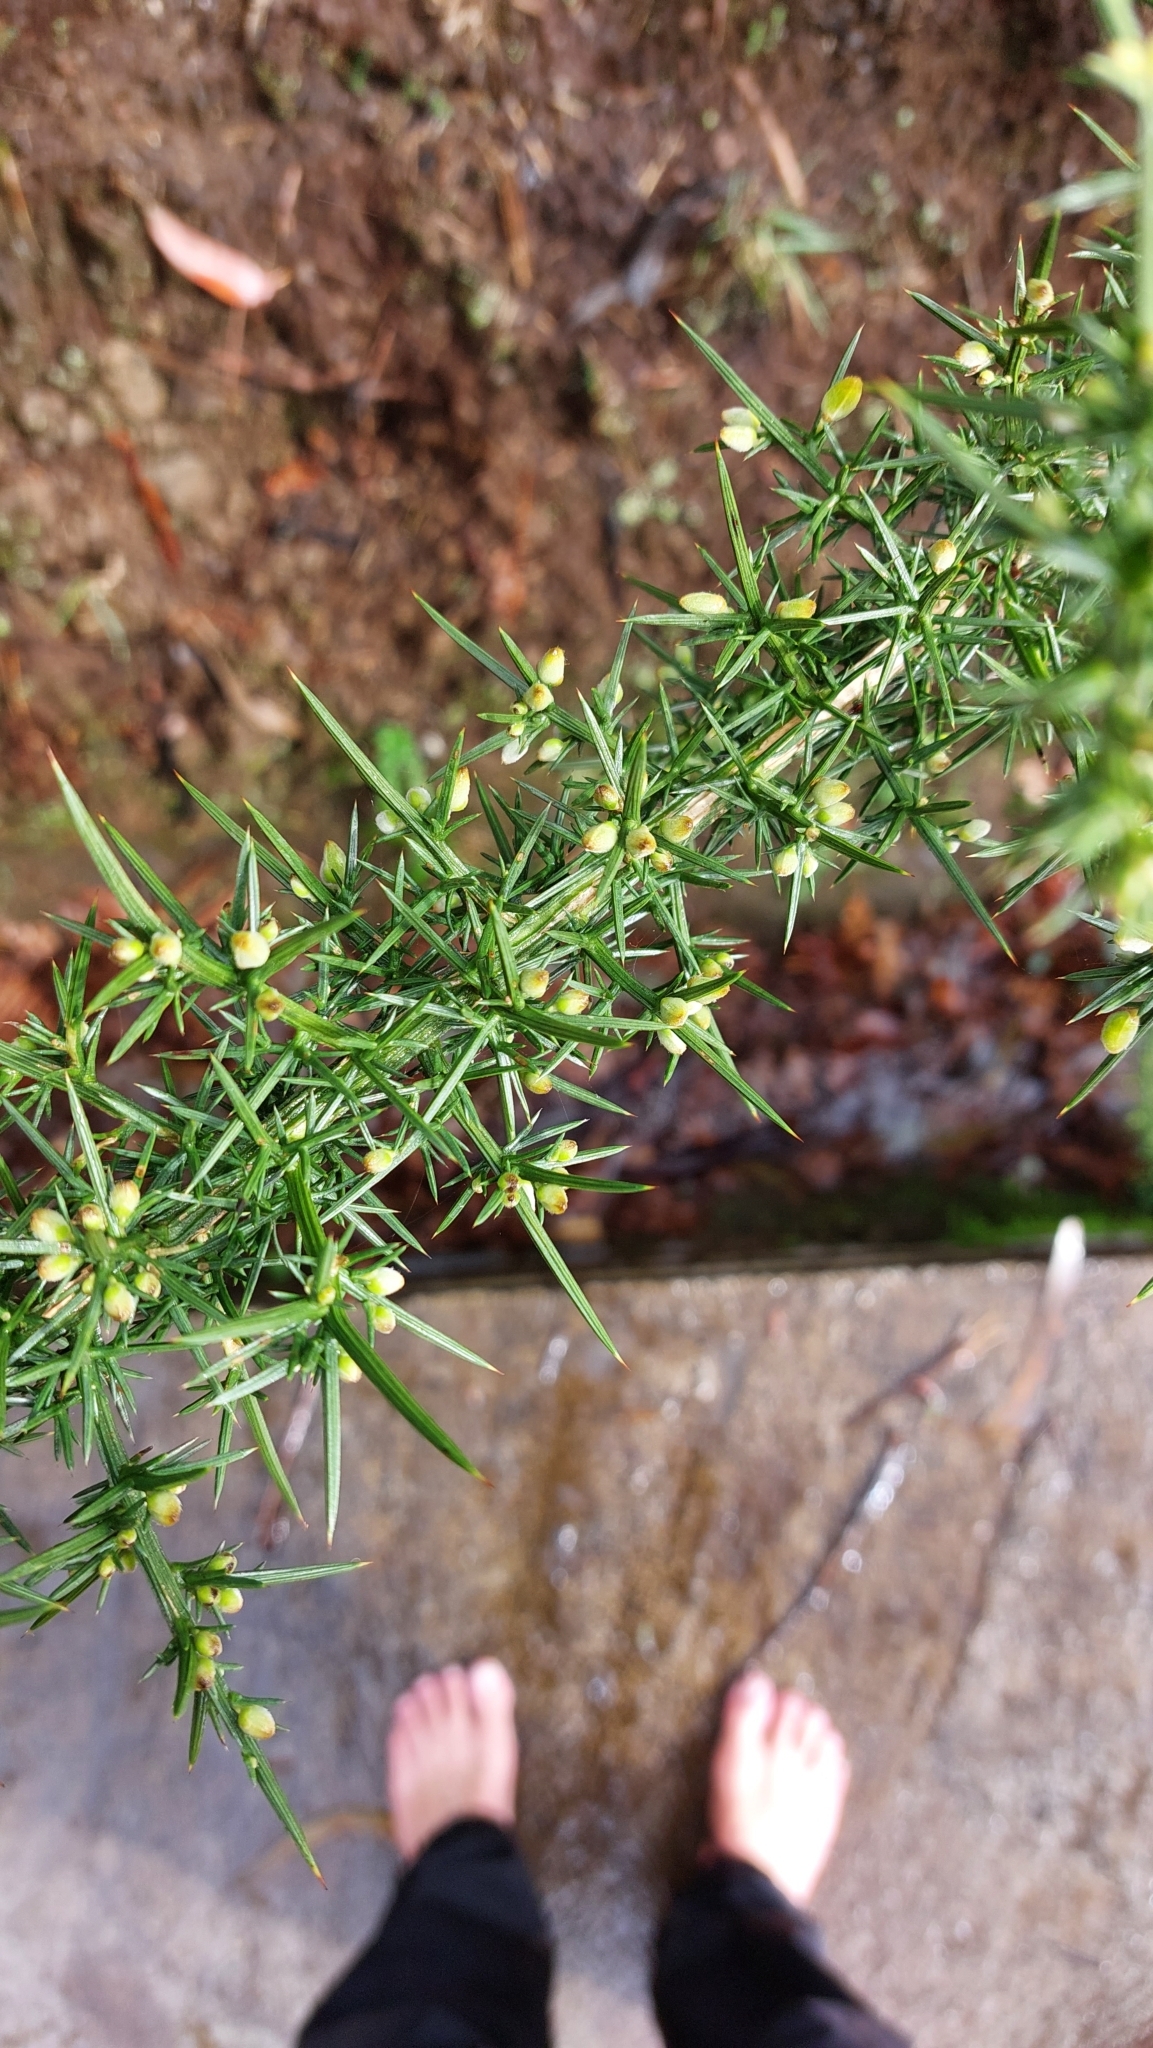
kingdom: Plantae
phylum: Tracheophyta
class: Magnoliopsida
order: Fabales
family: Fabaceae
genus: Ulex
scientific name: Ulex europaeus
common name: Common gorse
